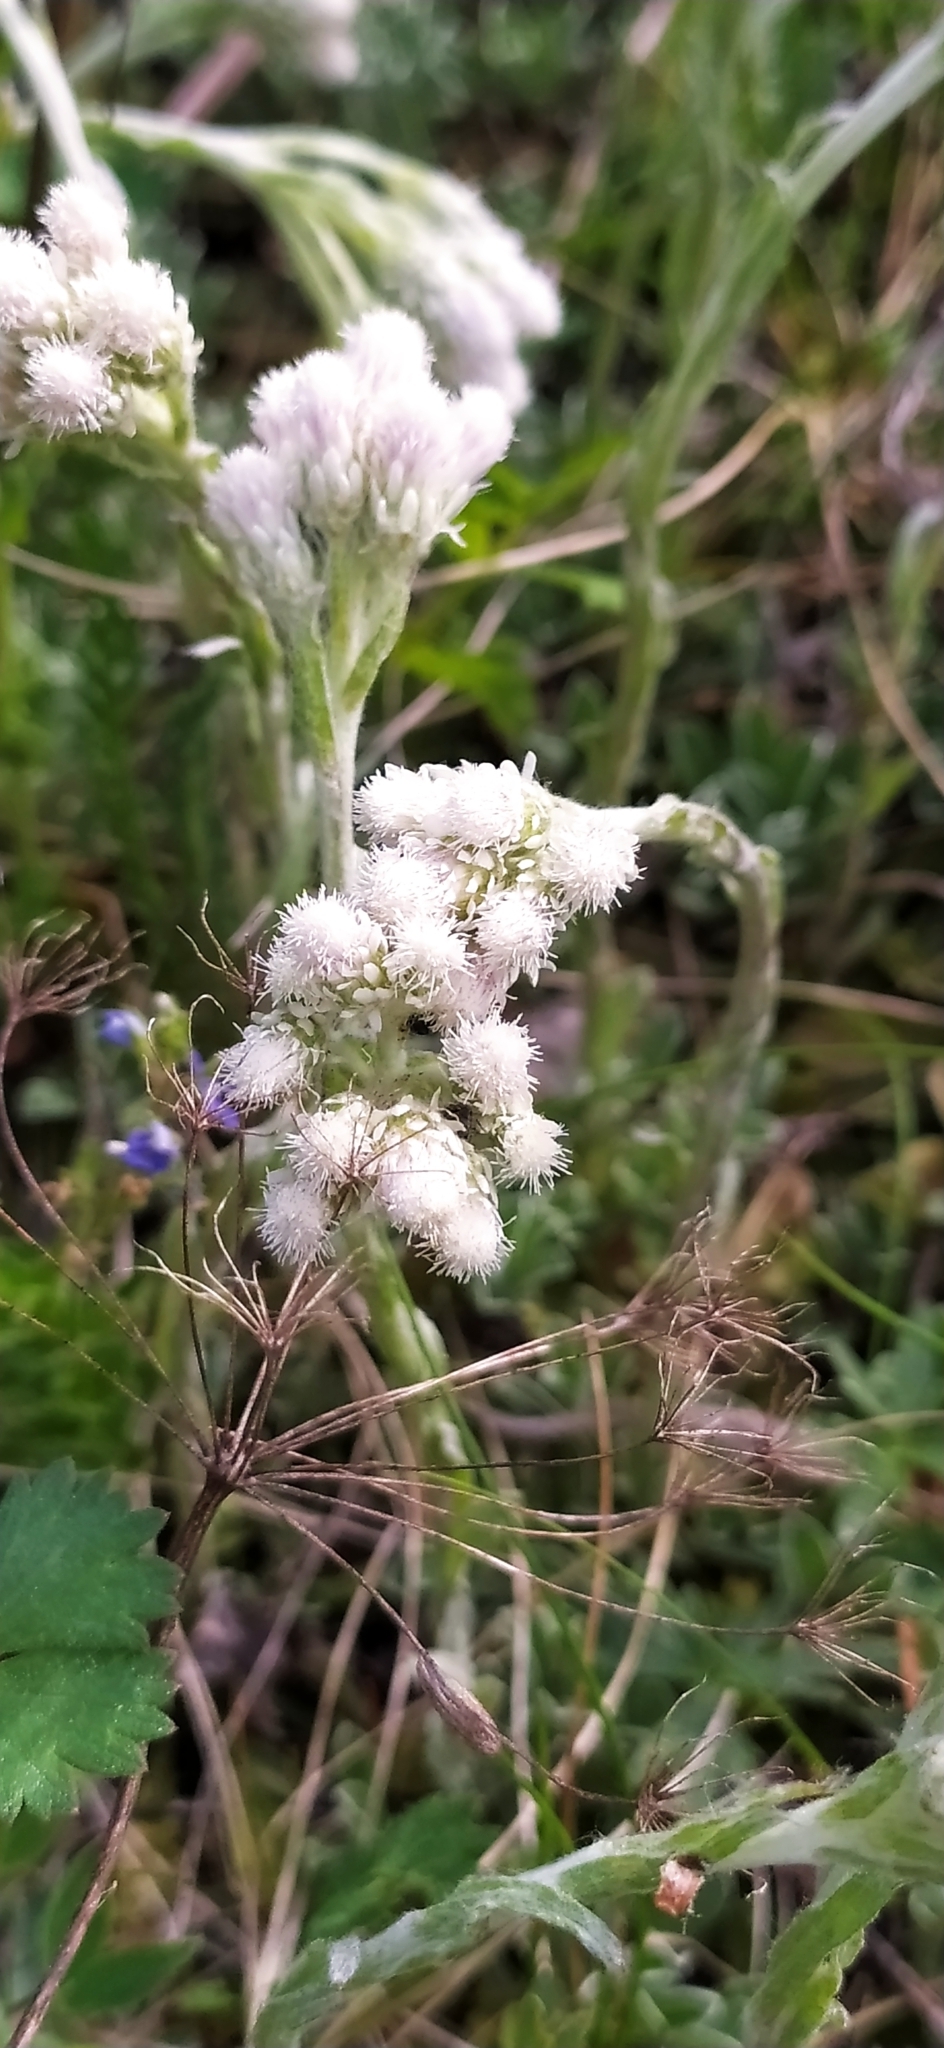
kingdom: Plantae
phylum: Tracheophyta
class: Magnoliopsida
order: Asterales
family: Asteraceae
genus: Antennaria
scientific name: Antennaria dioica
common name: Mountain everlasting
